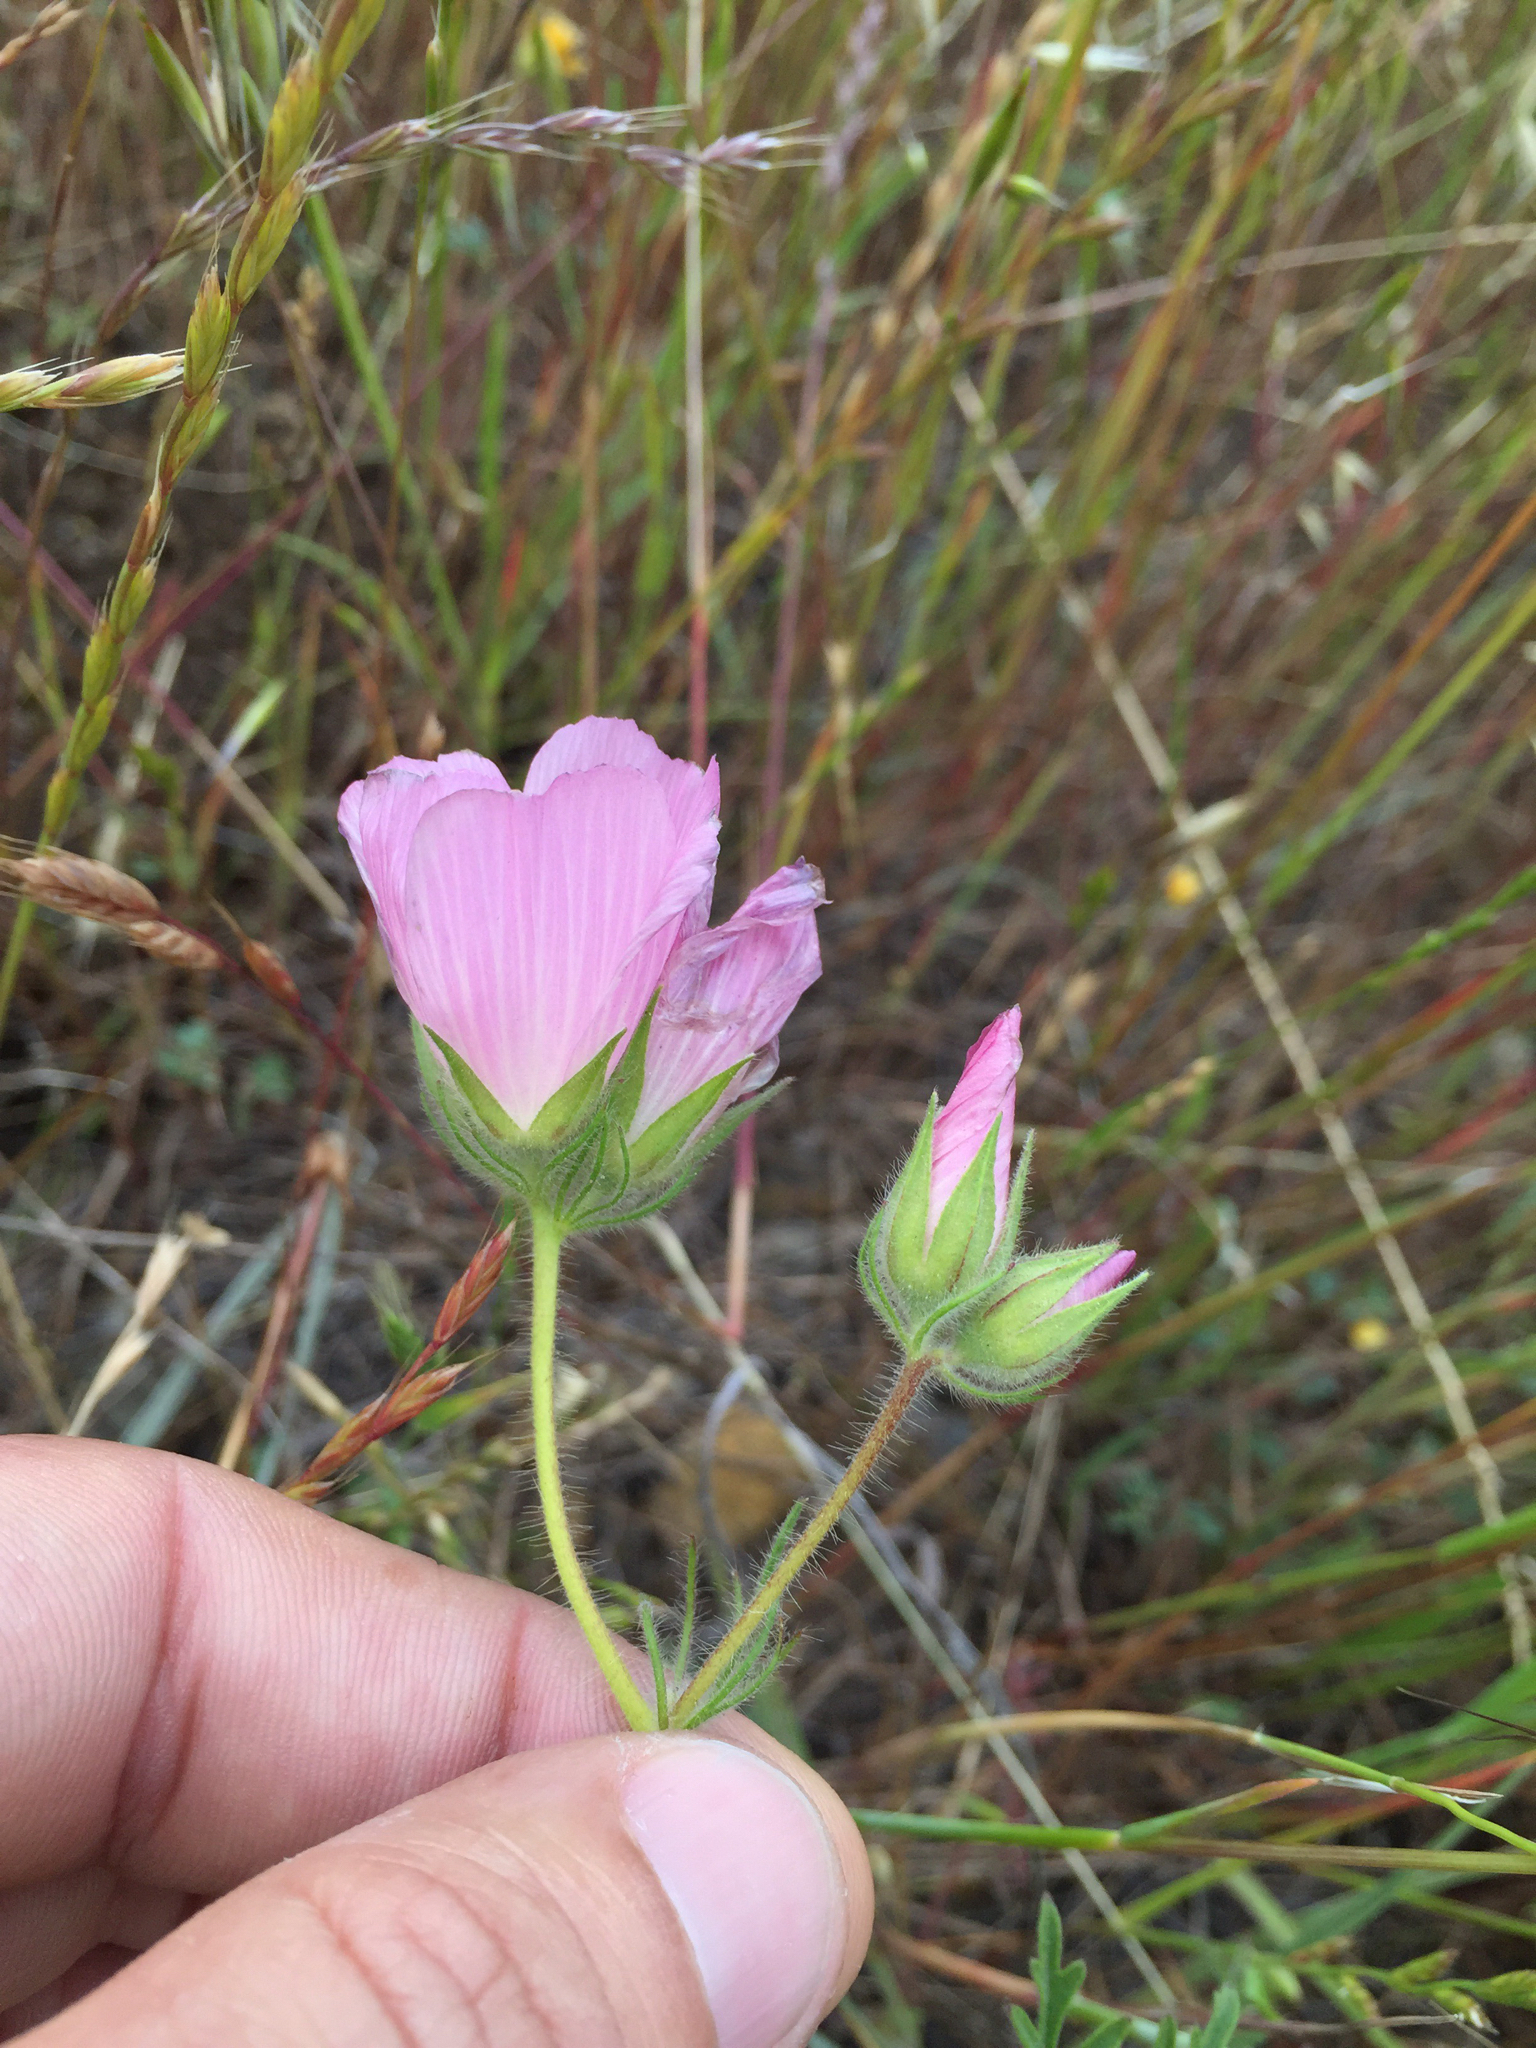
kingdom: Plantae
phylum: Tracheophyta
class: Magnoliopsida
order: Malvales
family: Malvaceae
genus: Sidalcea
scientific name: Sidalcea diploscypha
